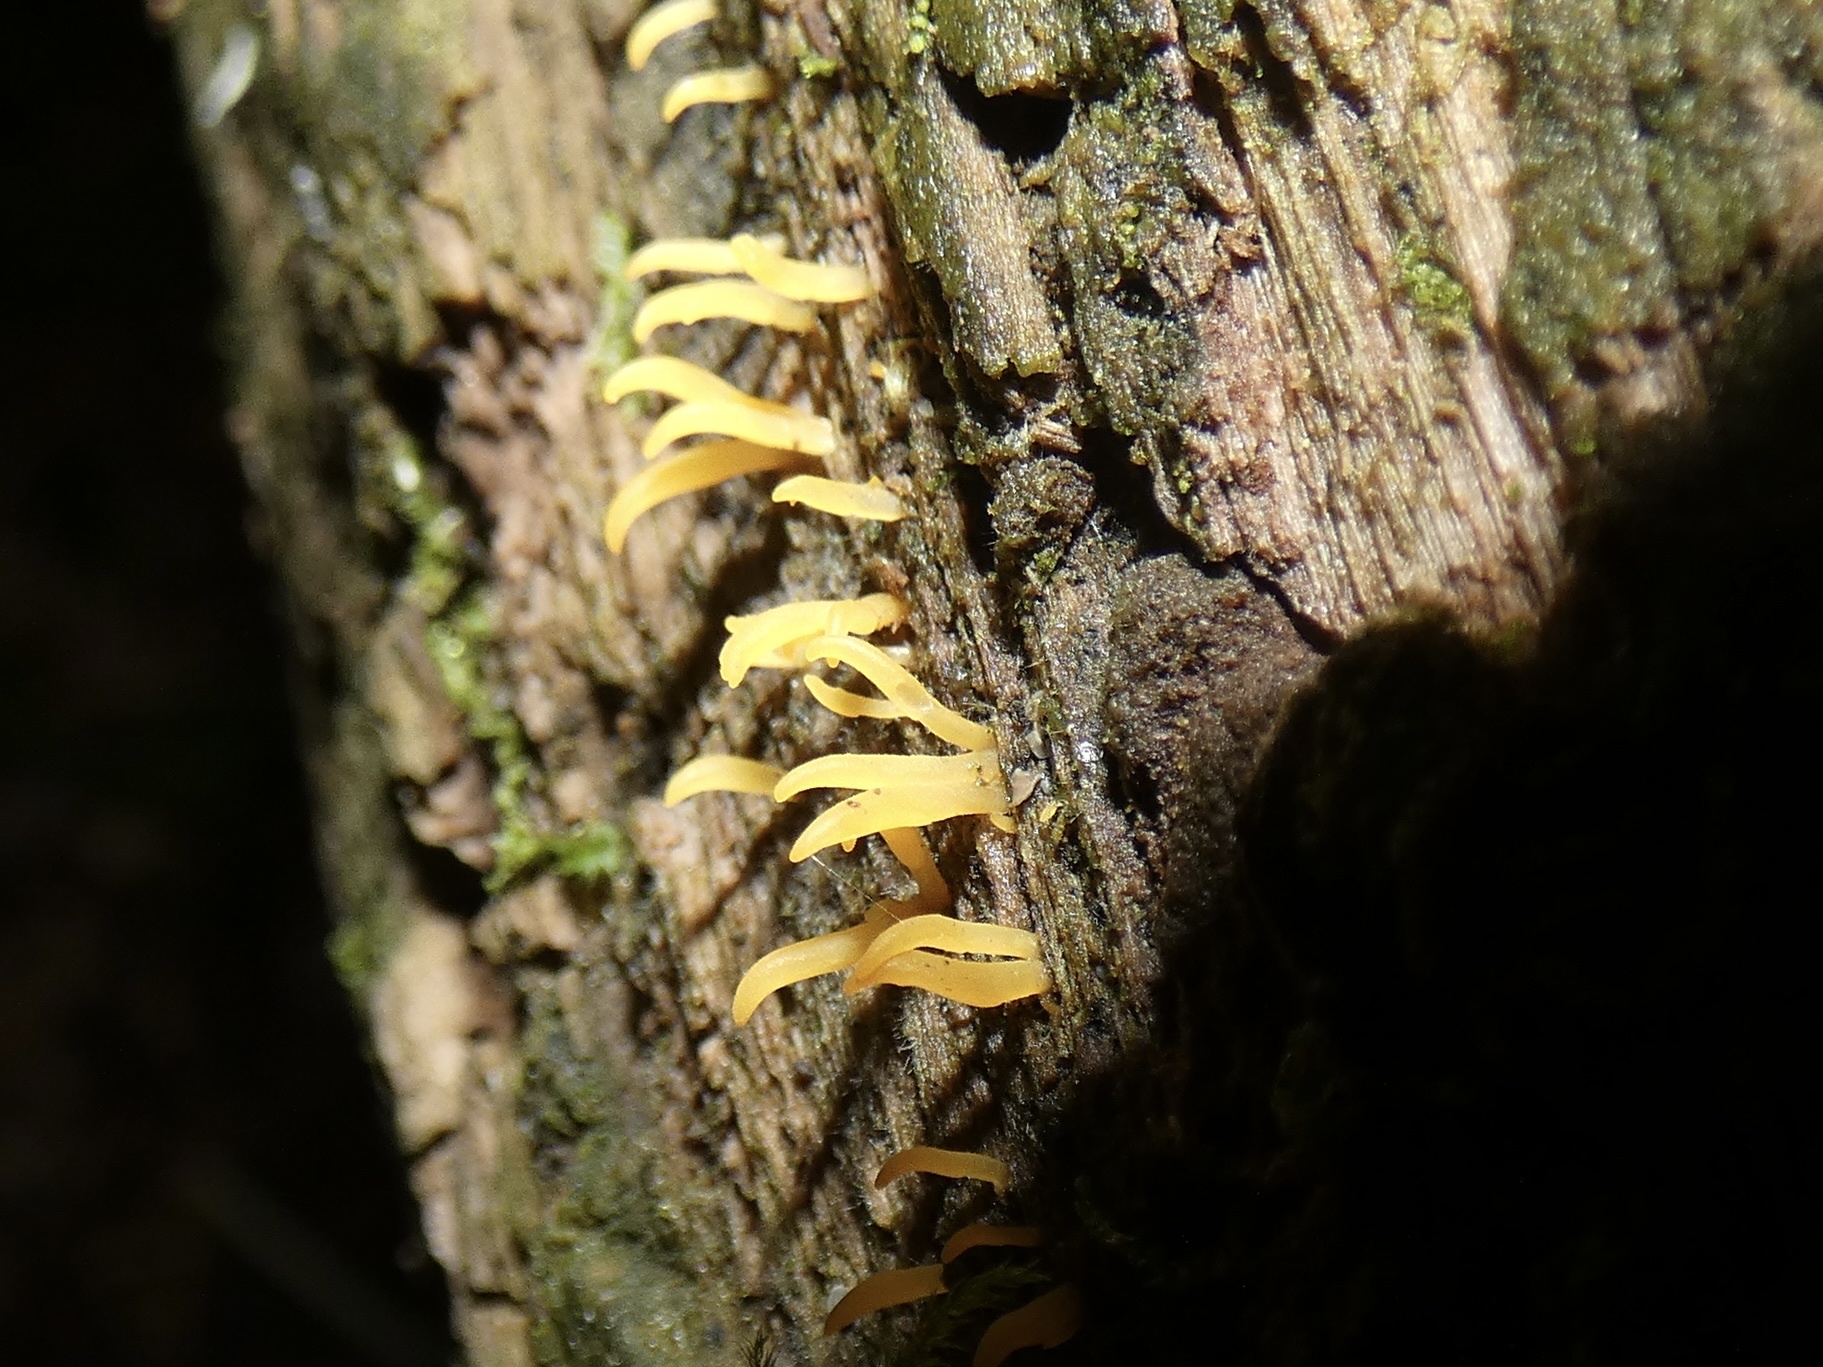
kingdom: Fungi
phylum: Basidiomycota
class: Dacrymycetes
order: Dacrymycetales
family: Dacrymycetaceae
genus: Calocera
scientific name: Calocera cornea
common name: Small stagshorn
